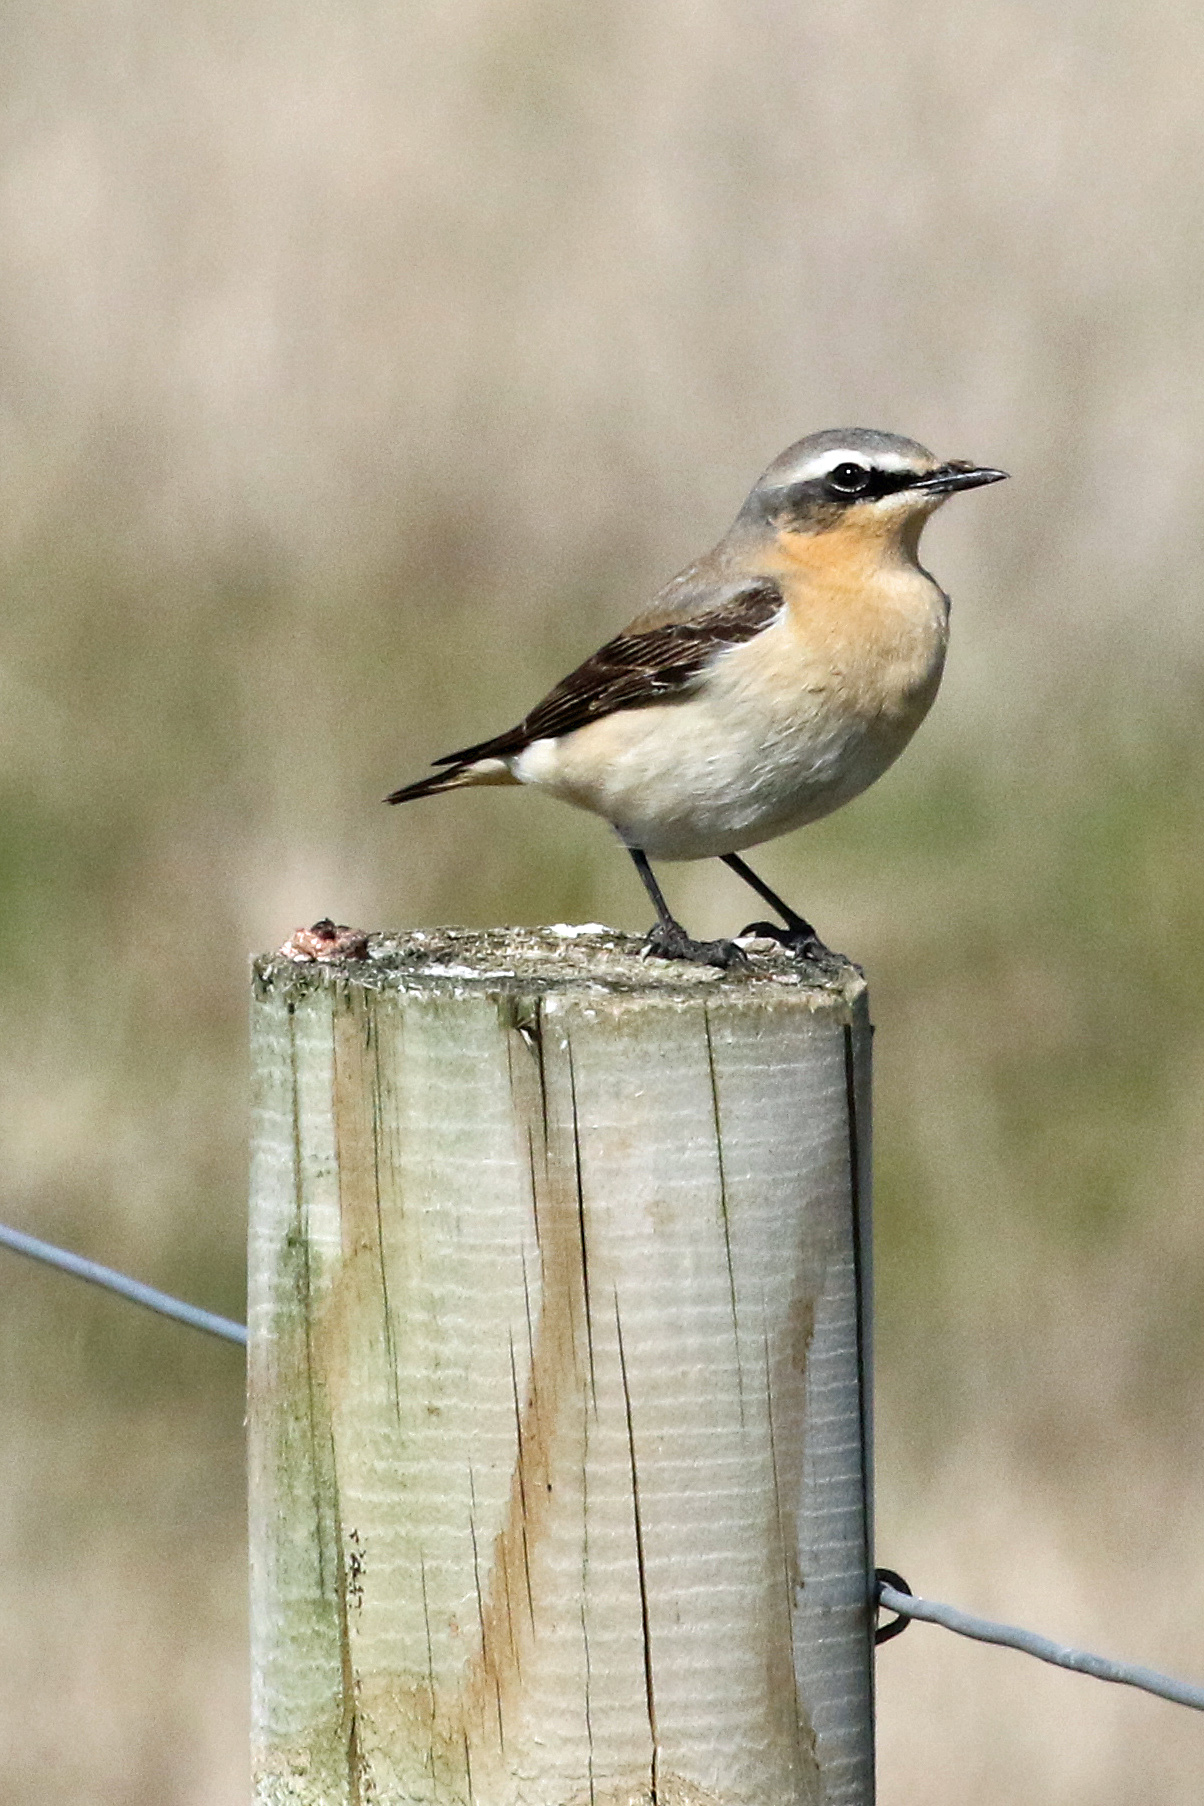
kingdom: Animalia
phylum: Chordata
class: Aves
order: Passeriformes
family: Muscicapidae
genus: Oenanthe
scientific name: Oenanthe oenanthe
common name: Northern wheatear
